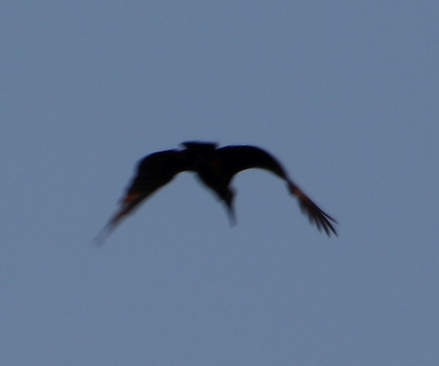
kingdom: Animalia
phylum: Chordata
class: Aves
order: Pelecaniformes
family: Scopidae
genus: Scopus
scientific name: Scopus umbretta
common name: Hamerkop
